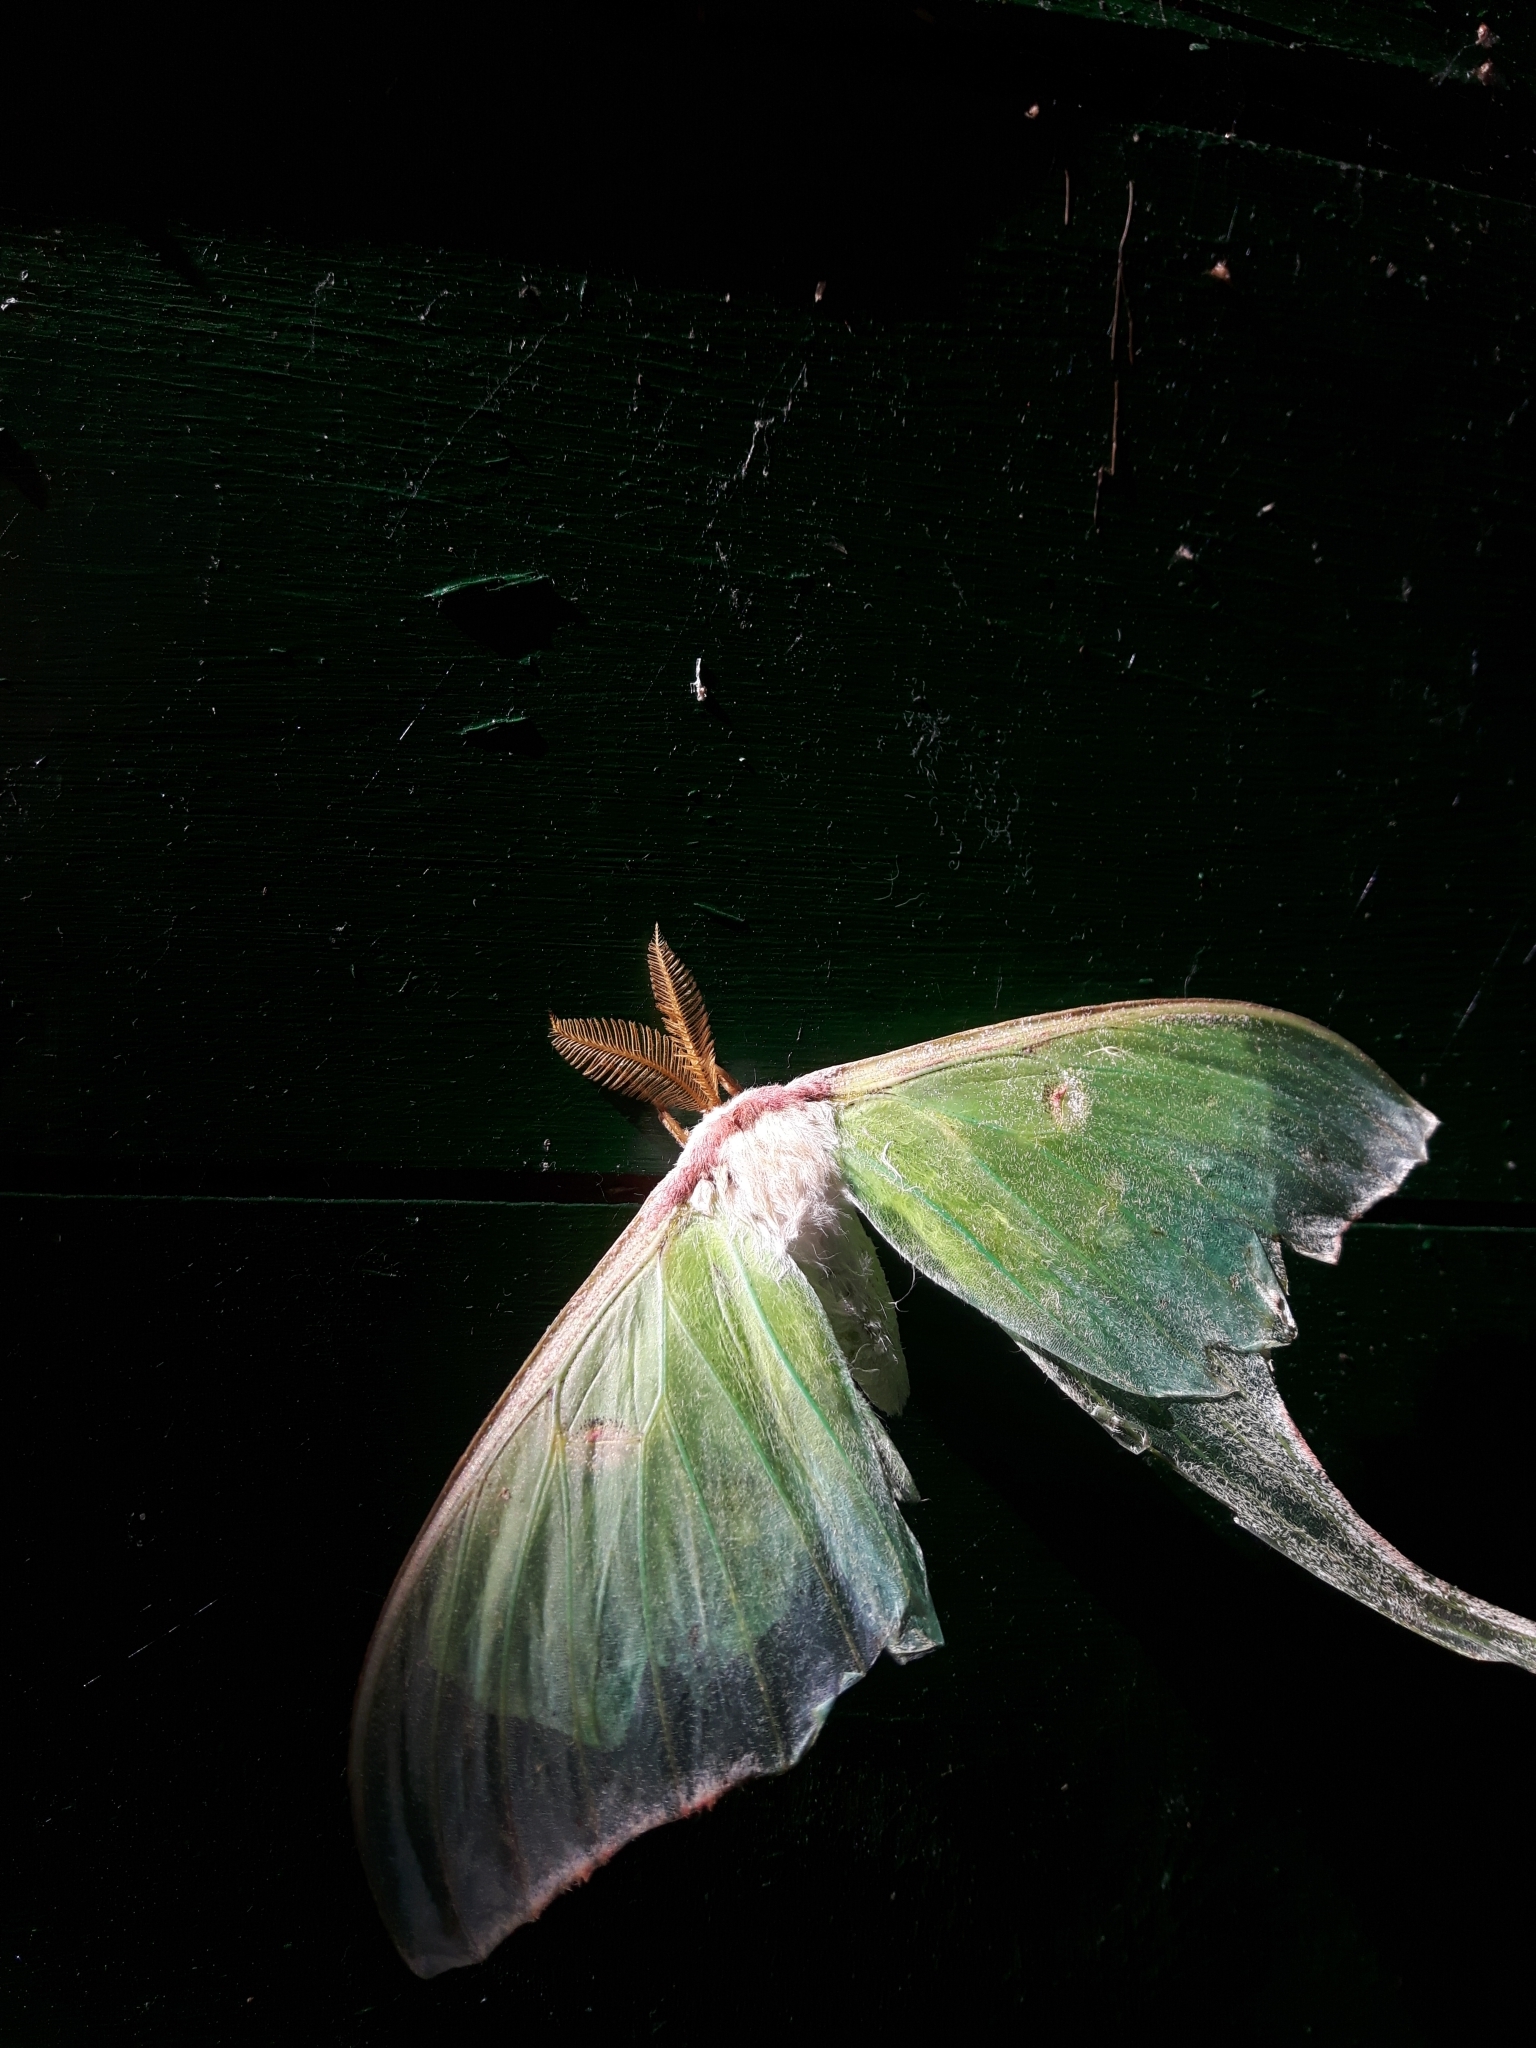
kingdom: Animalia
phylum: Arthropoda
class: Insecta
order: Lepidoptera
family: Saturniidae
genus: Actias
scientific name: Actias luna
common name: Luna moth
